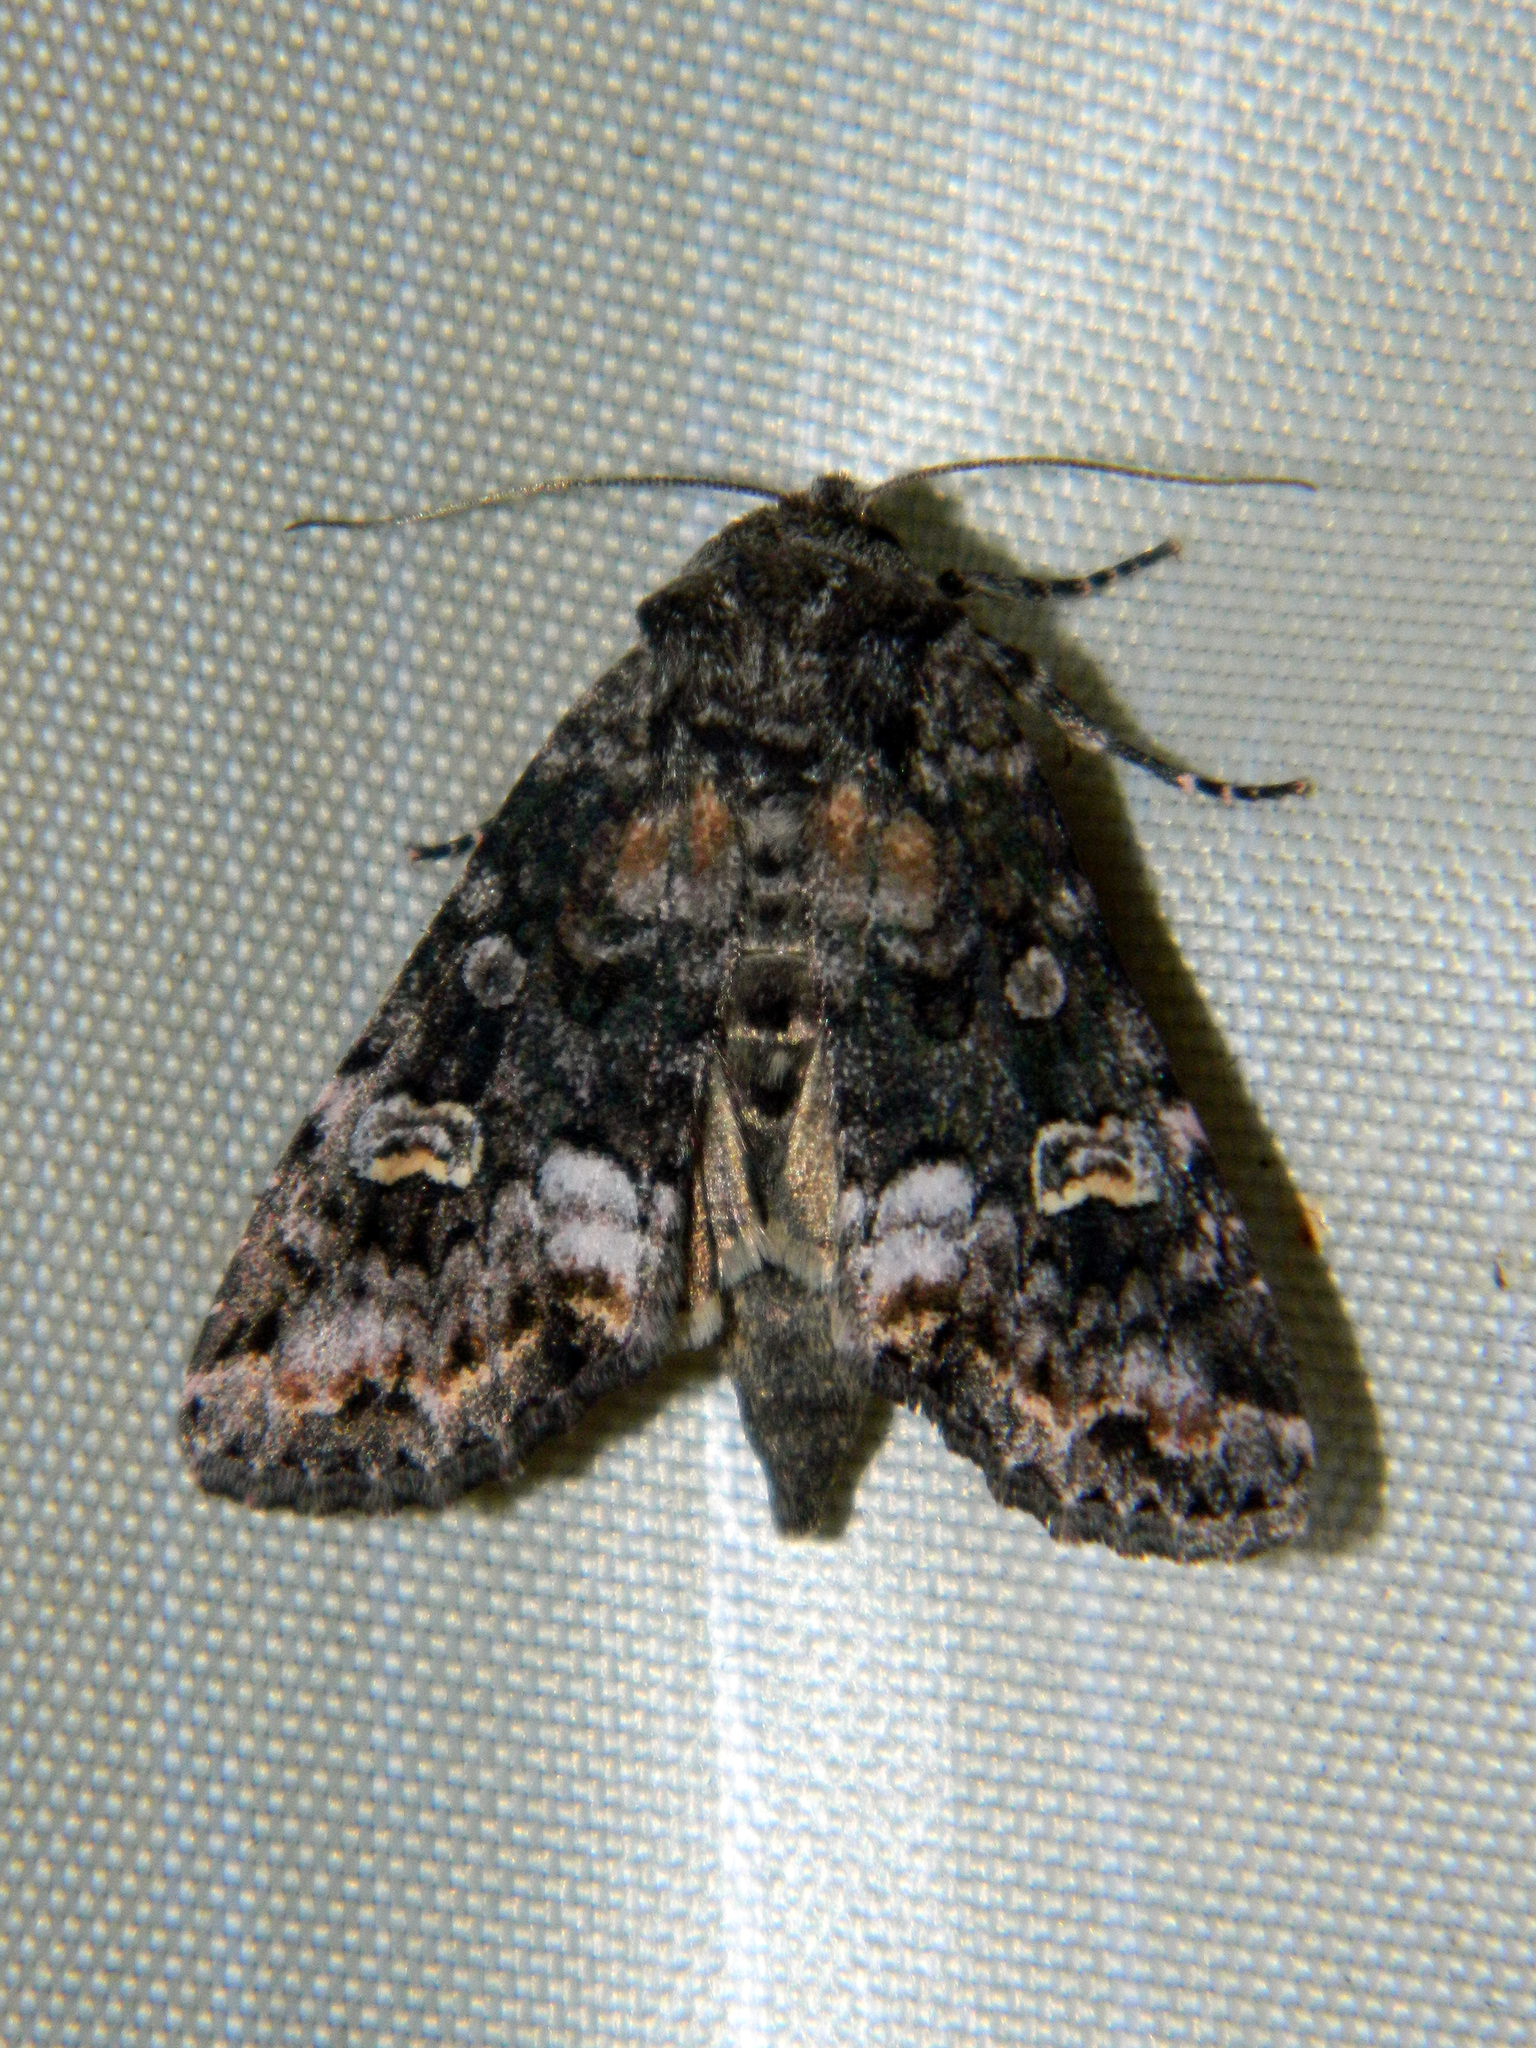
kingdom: Animalia
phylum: Arthropoda
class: Insecta
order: Lepidoptera
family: Noctuidae
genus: Spiramater
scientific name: Spiramater lutra
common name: Otter spiramater moth
